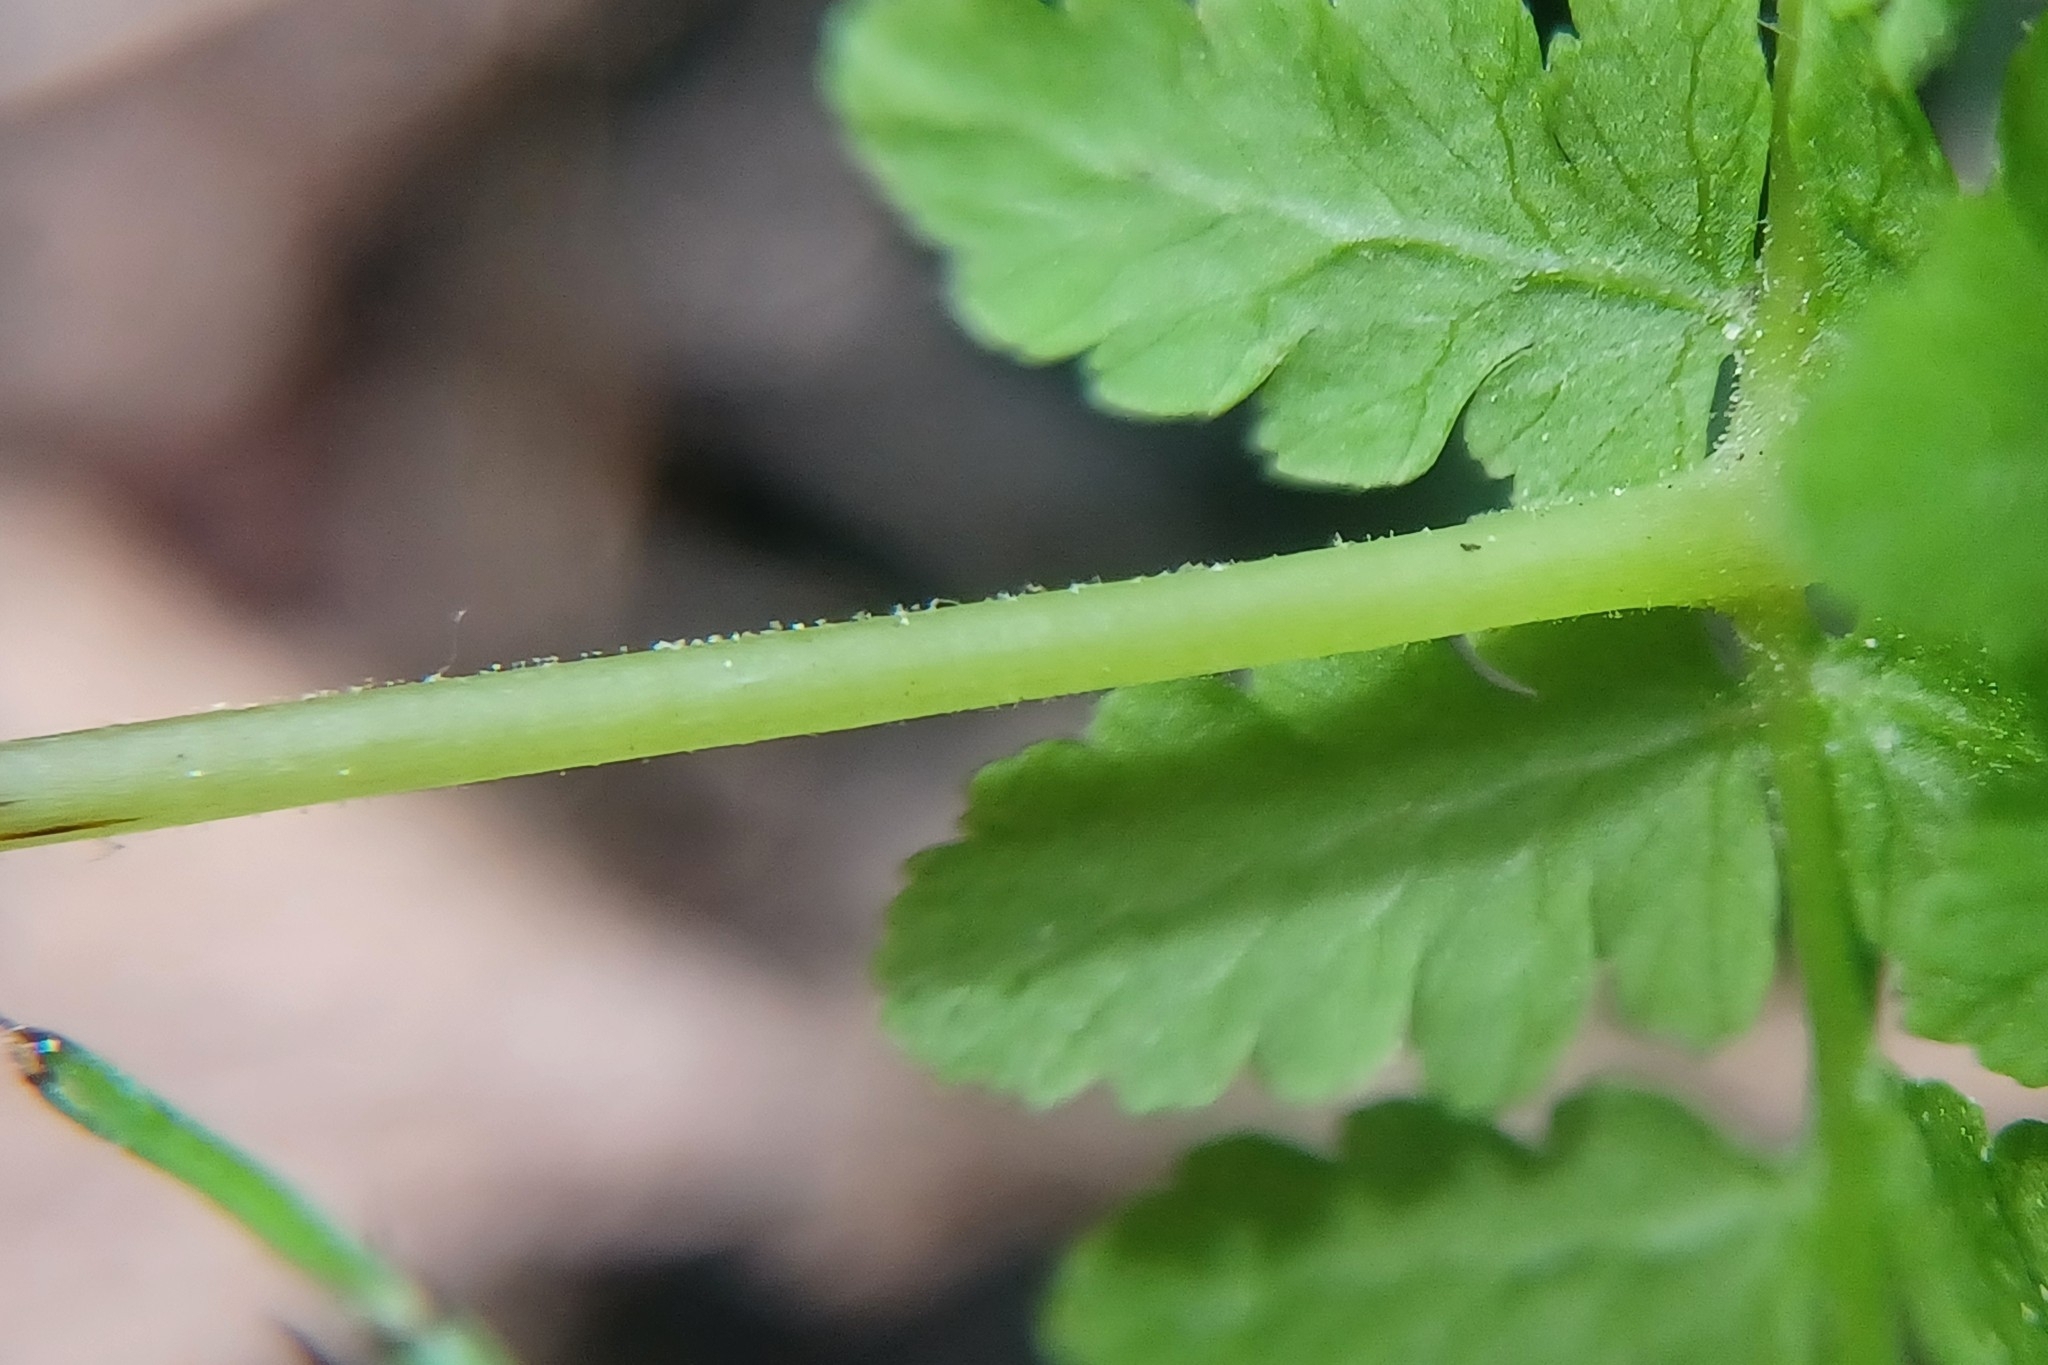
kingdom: Plantae
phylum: Tracheophyta
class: Polypodiopsida
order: Polypodiales
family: Cystopteridaceae
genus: Cystopteris
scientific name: Cystopteris bulbifera
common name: Bulblet bladder fern
